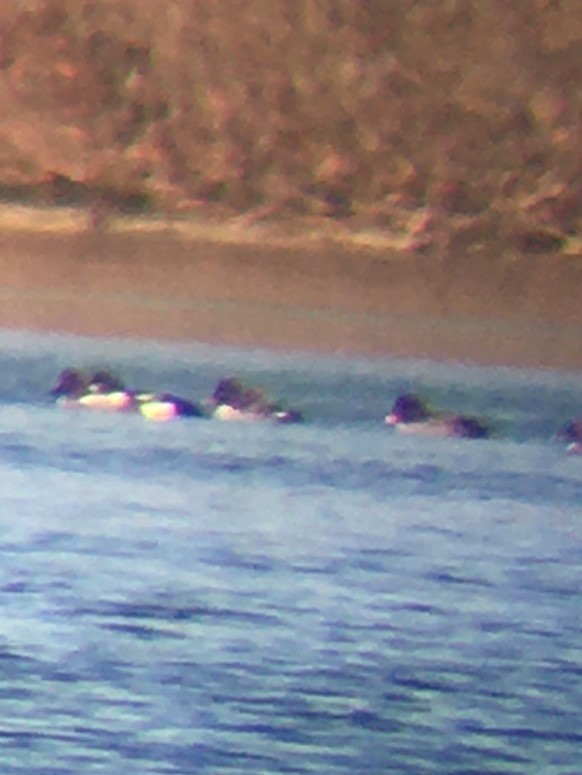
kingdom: Animalia
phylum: Chordata
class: Aves
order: Anseriformes
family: Anatidae
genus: Bucephala
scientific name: Bucephala islandica
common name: Barrow's goldeneye
